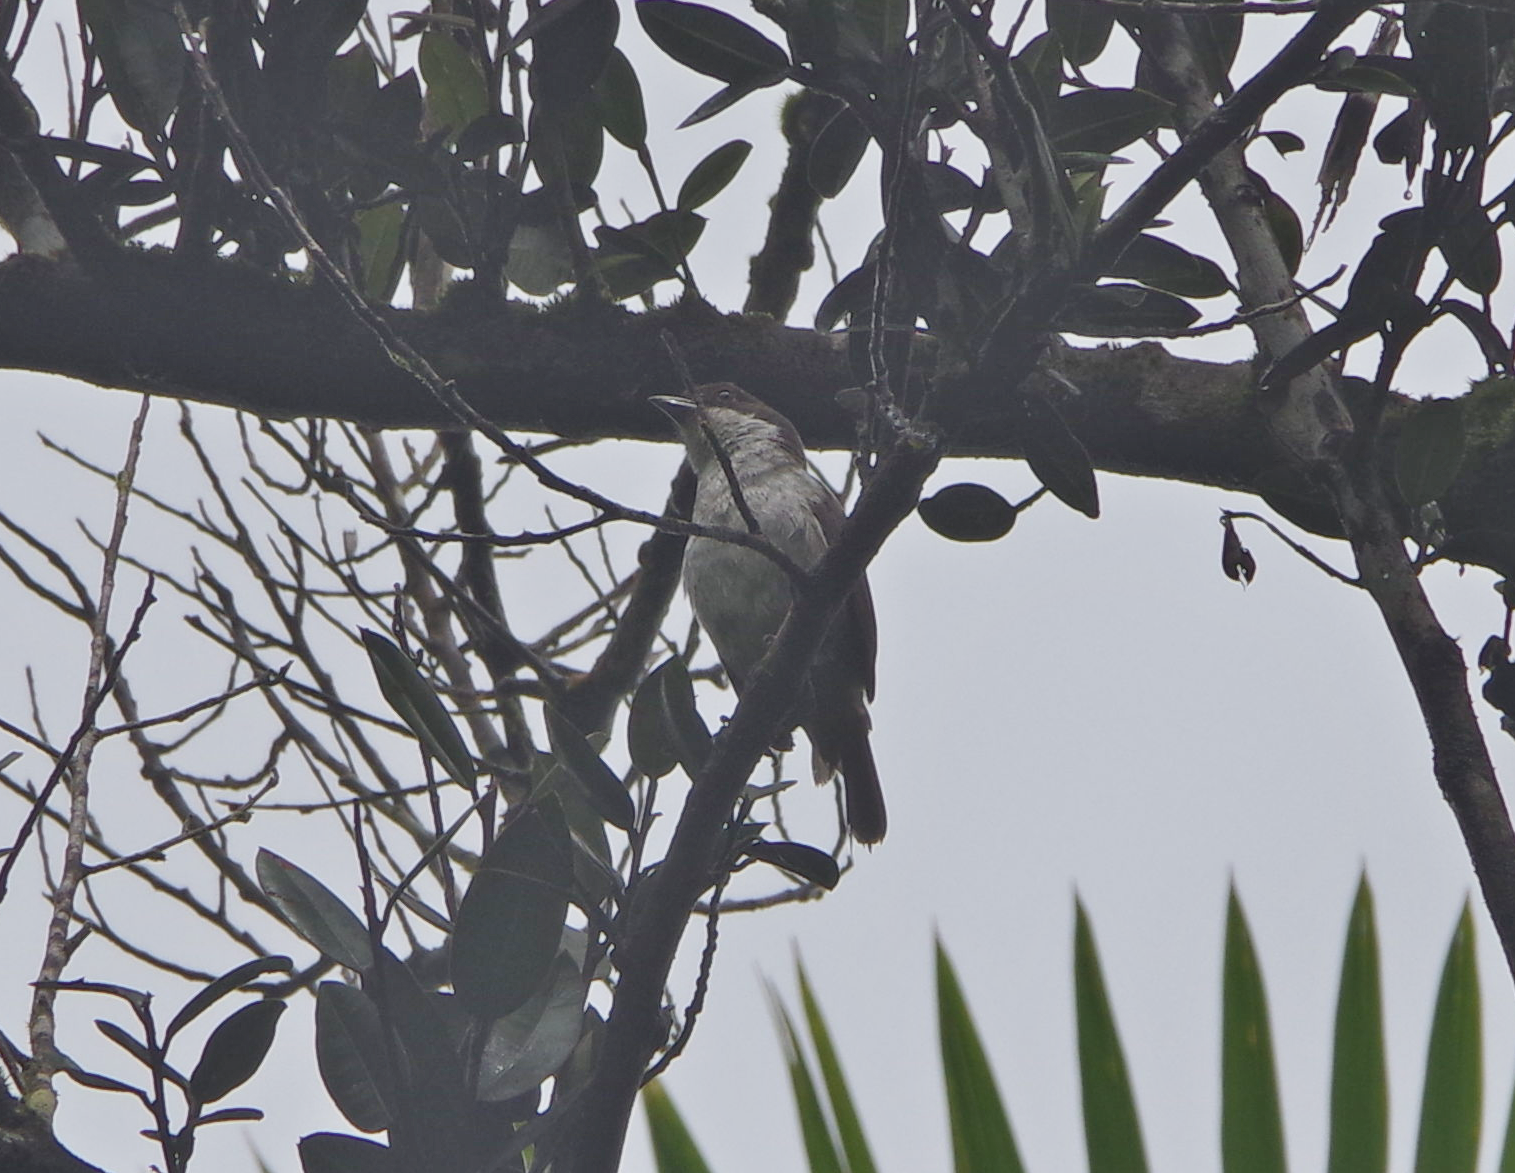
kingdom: Animalia
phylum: Chordata
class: Aves
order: Passeriformes
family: Nesospingidae
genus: Nesospingus
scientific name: Nesospingus speculiferus
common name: Puerto rican tanager
